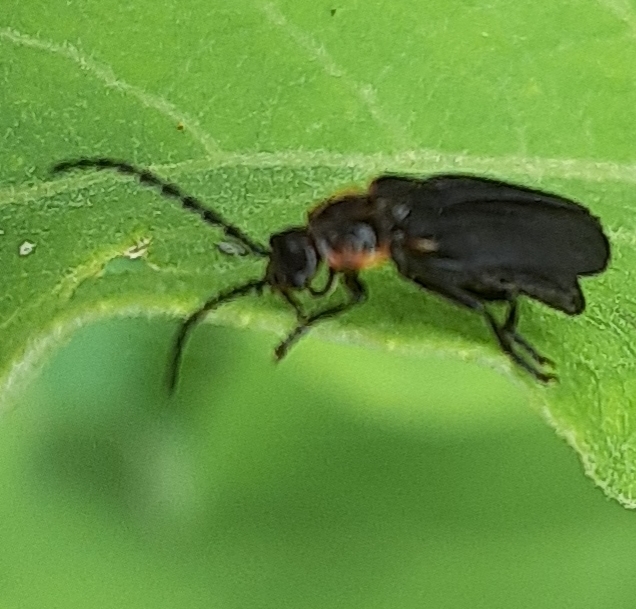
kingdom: Animalia
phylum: Arthropoda
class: Insecta
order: Coleoptera
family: Cantharidae
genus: Polemius
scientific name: Polemius laticornis
